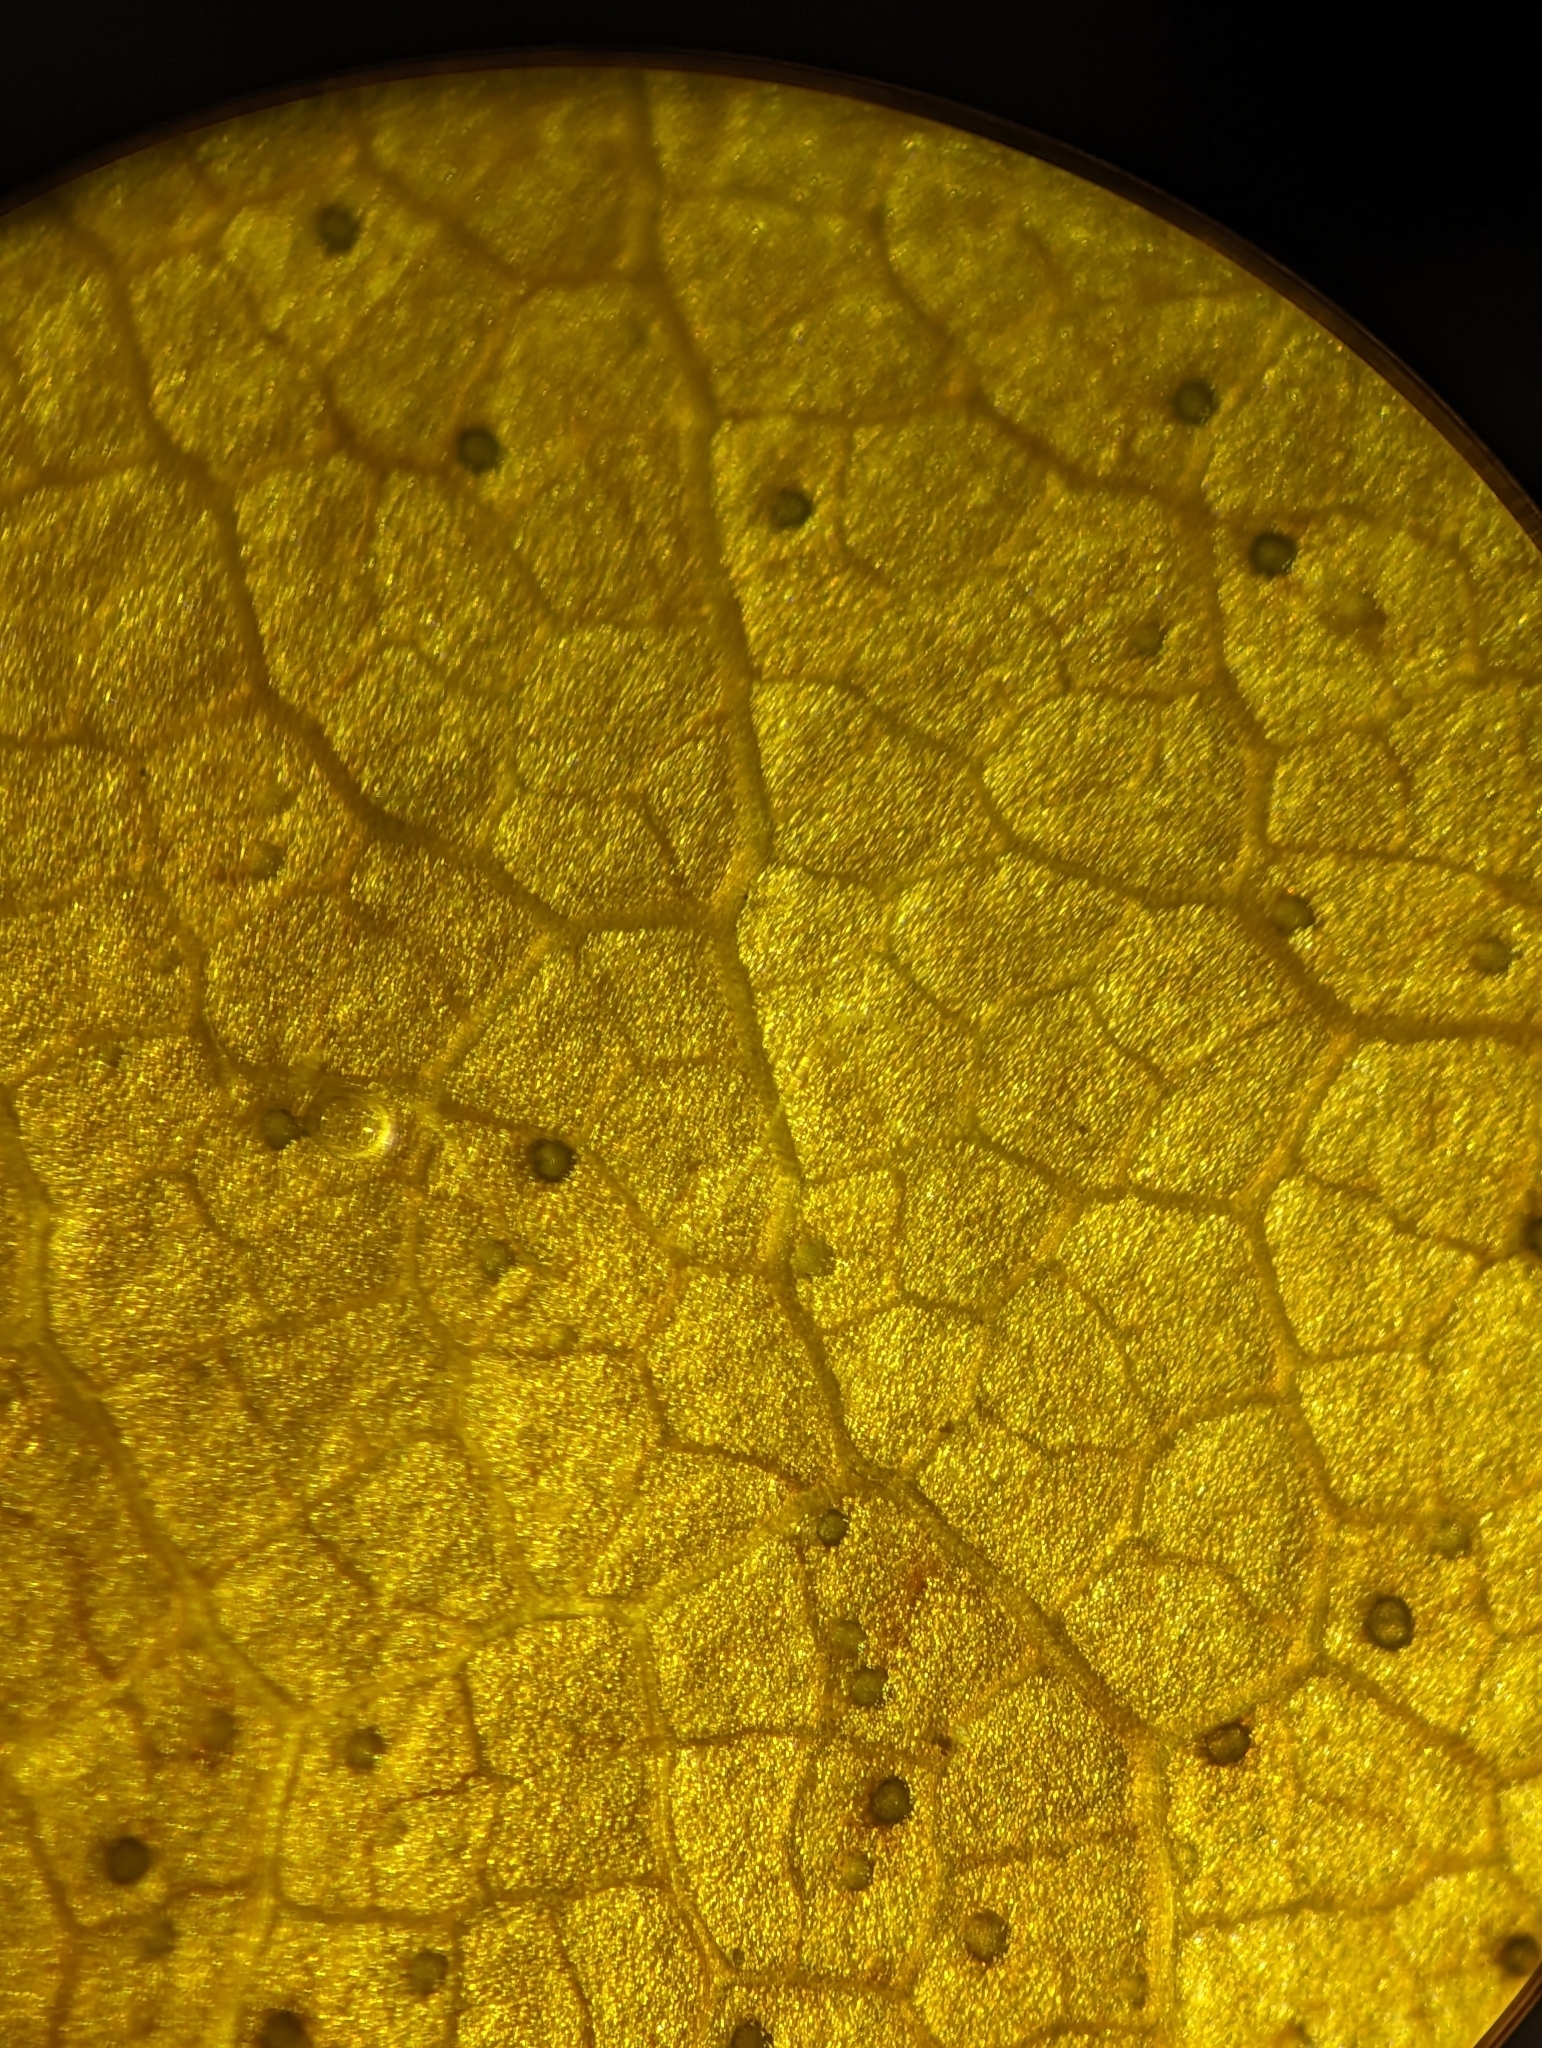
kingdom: Animalia
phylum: Nematoda
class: Chromadorea
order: Rhabditida
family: Anguinidae
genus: Litylenchus
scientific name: Litylenchus crenatae
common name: Beech leaf disease
